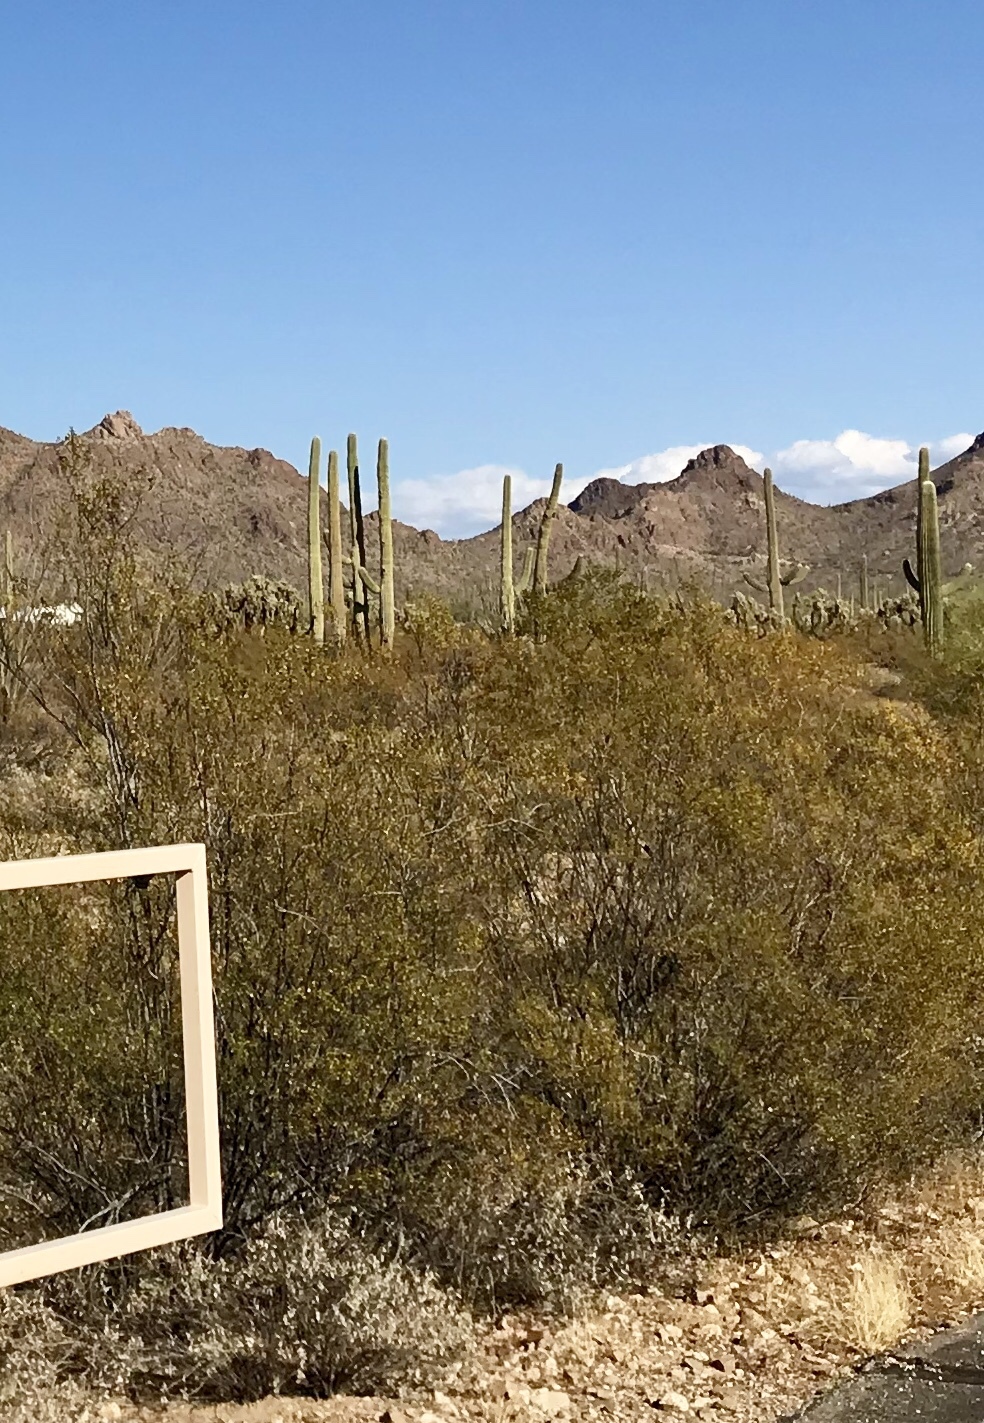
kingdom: Plantae
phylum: Tracheophyta
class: Magnoliopsida
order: Zygophyllales
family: Zygophyllaceae
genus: Larrea
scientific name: Larrea tridentata
